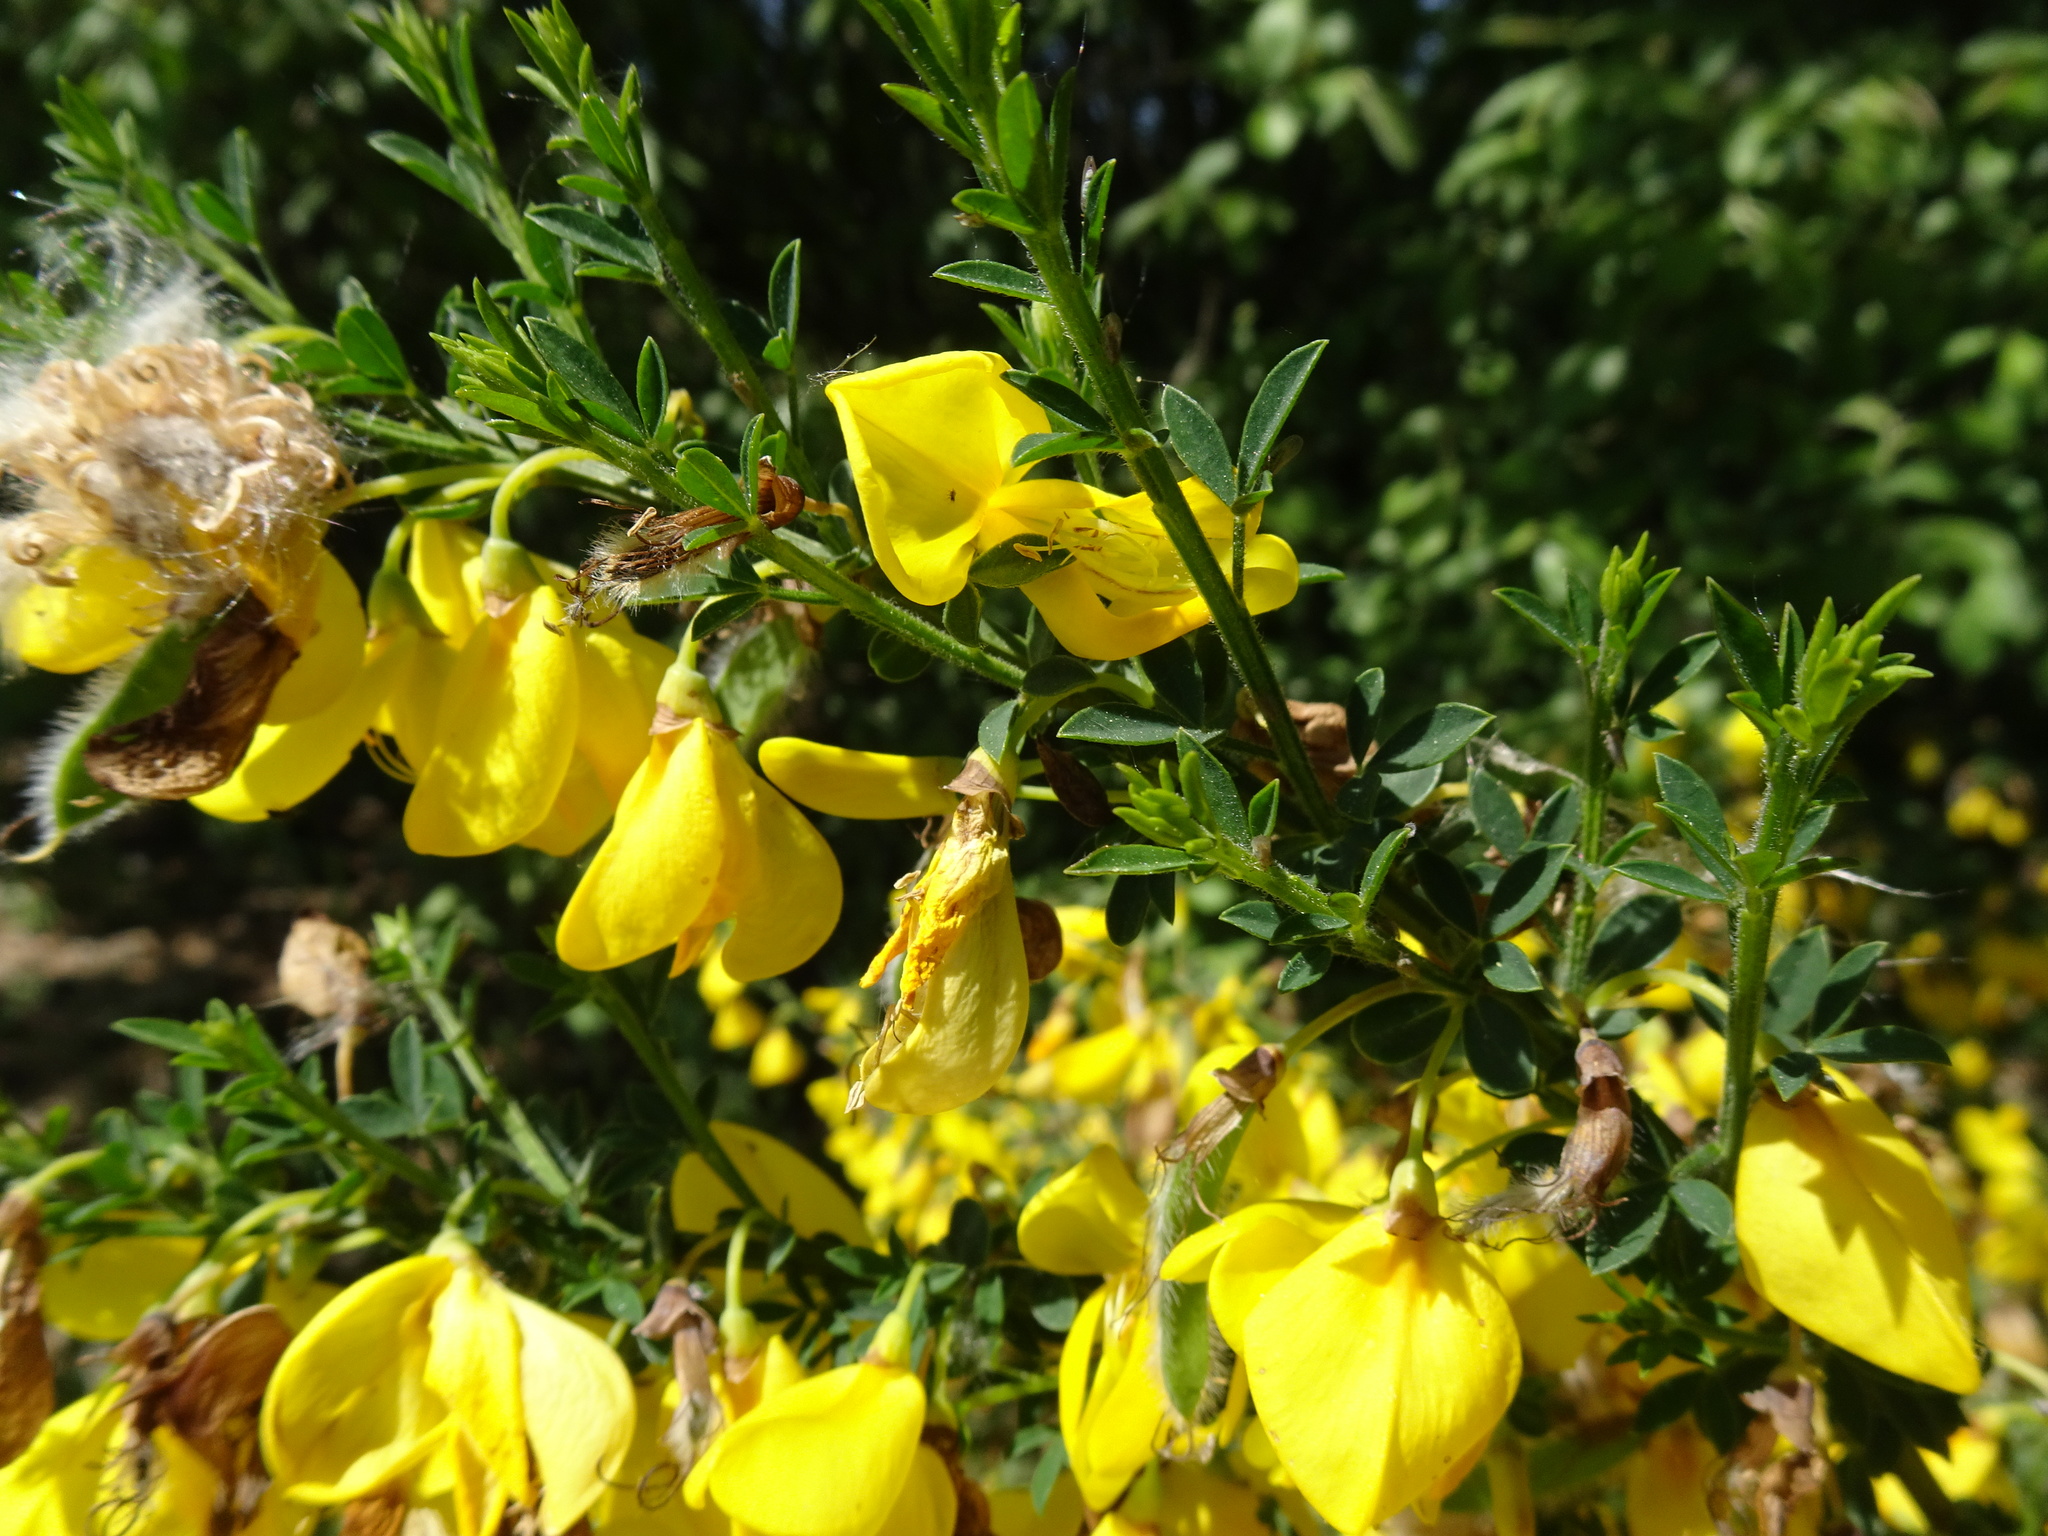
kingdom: Plantae
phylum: Tracheophyta
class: Magnoliopsida
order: Fabales
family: Fabaceae
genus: Cytisus
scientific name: Cytisus scoparius
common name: Scotch broom
